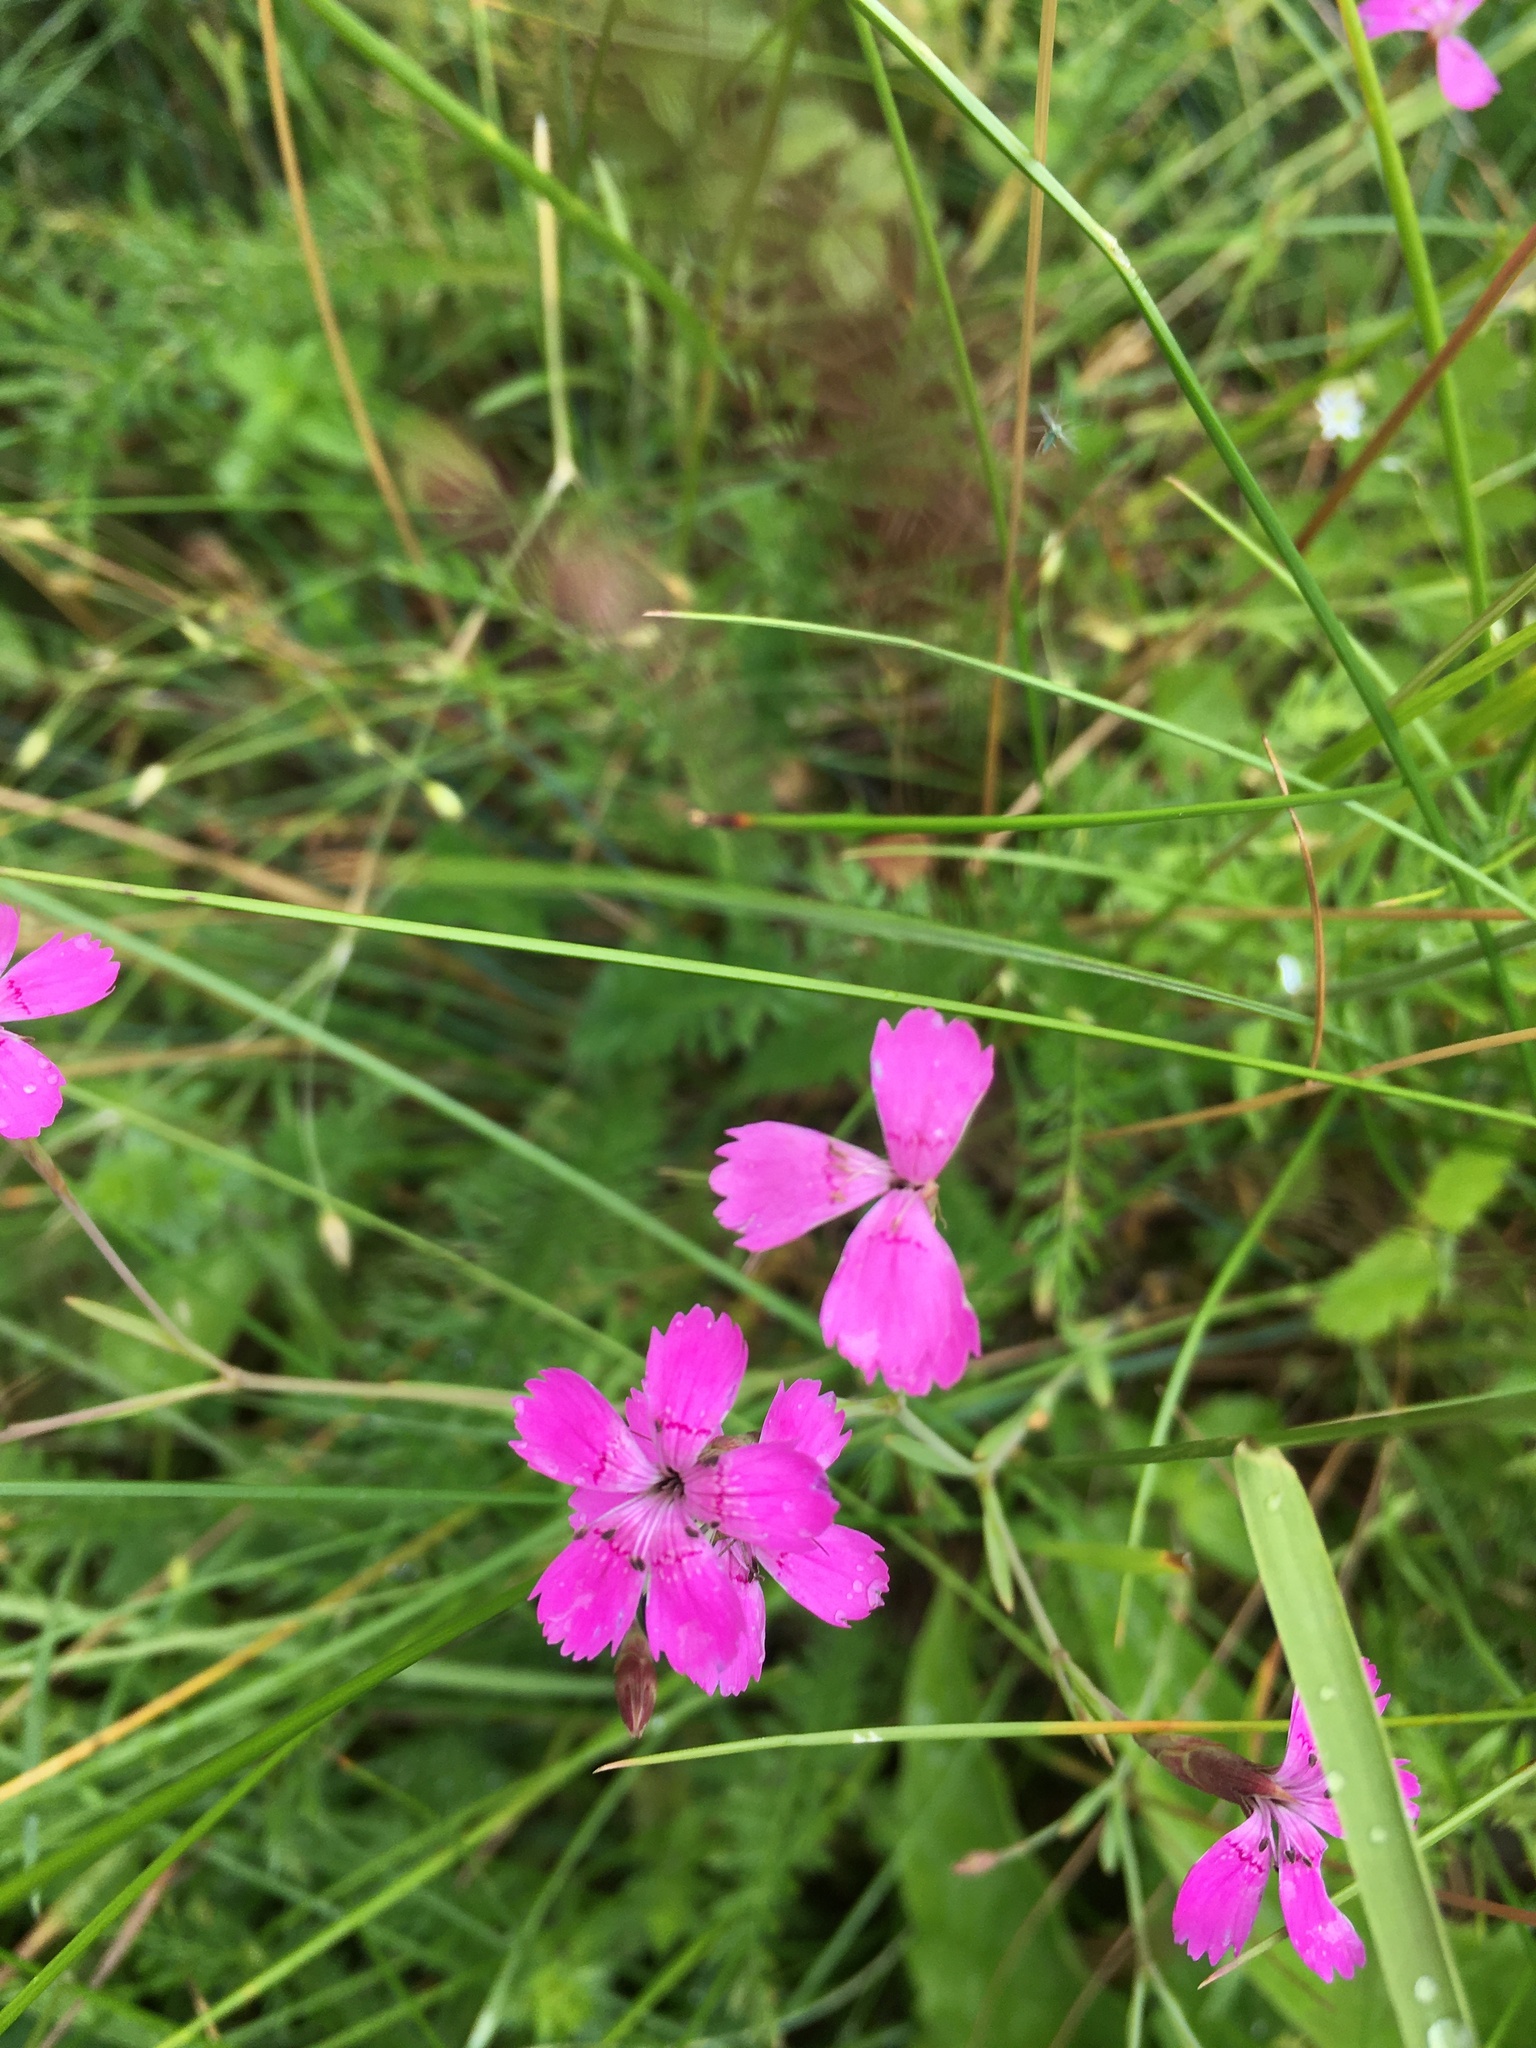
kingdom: Plantae
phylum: Tracheophyta
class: Magnoliopsida
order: Caryophyllales
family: Caryophyllaceae
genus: Dianthus
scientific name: Dianthus deltoides
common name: Maiden pink
